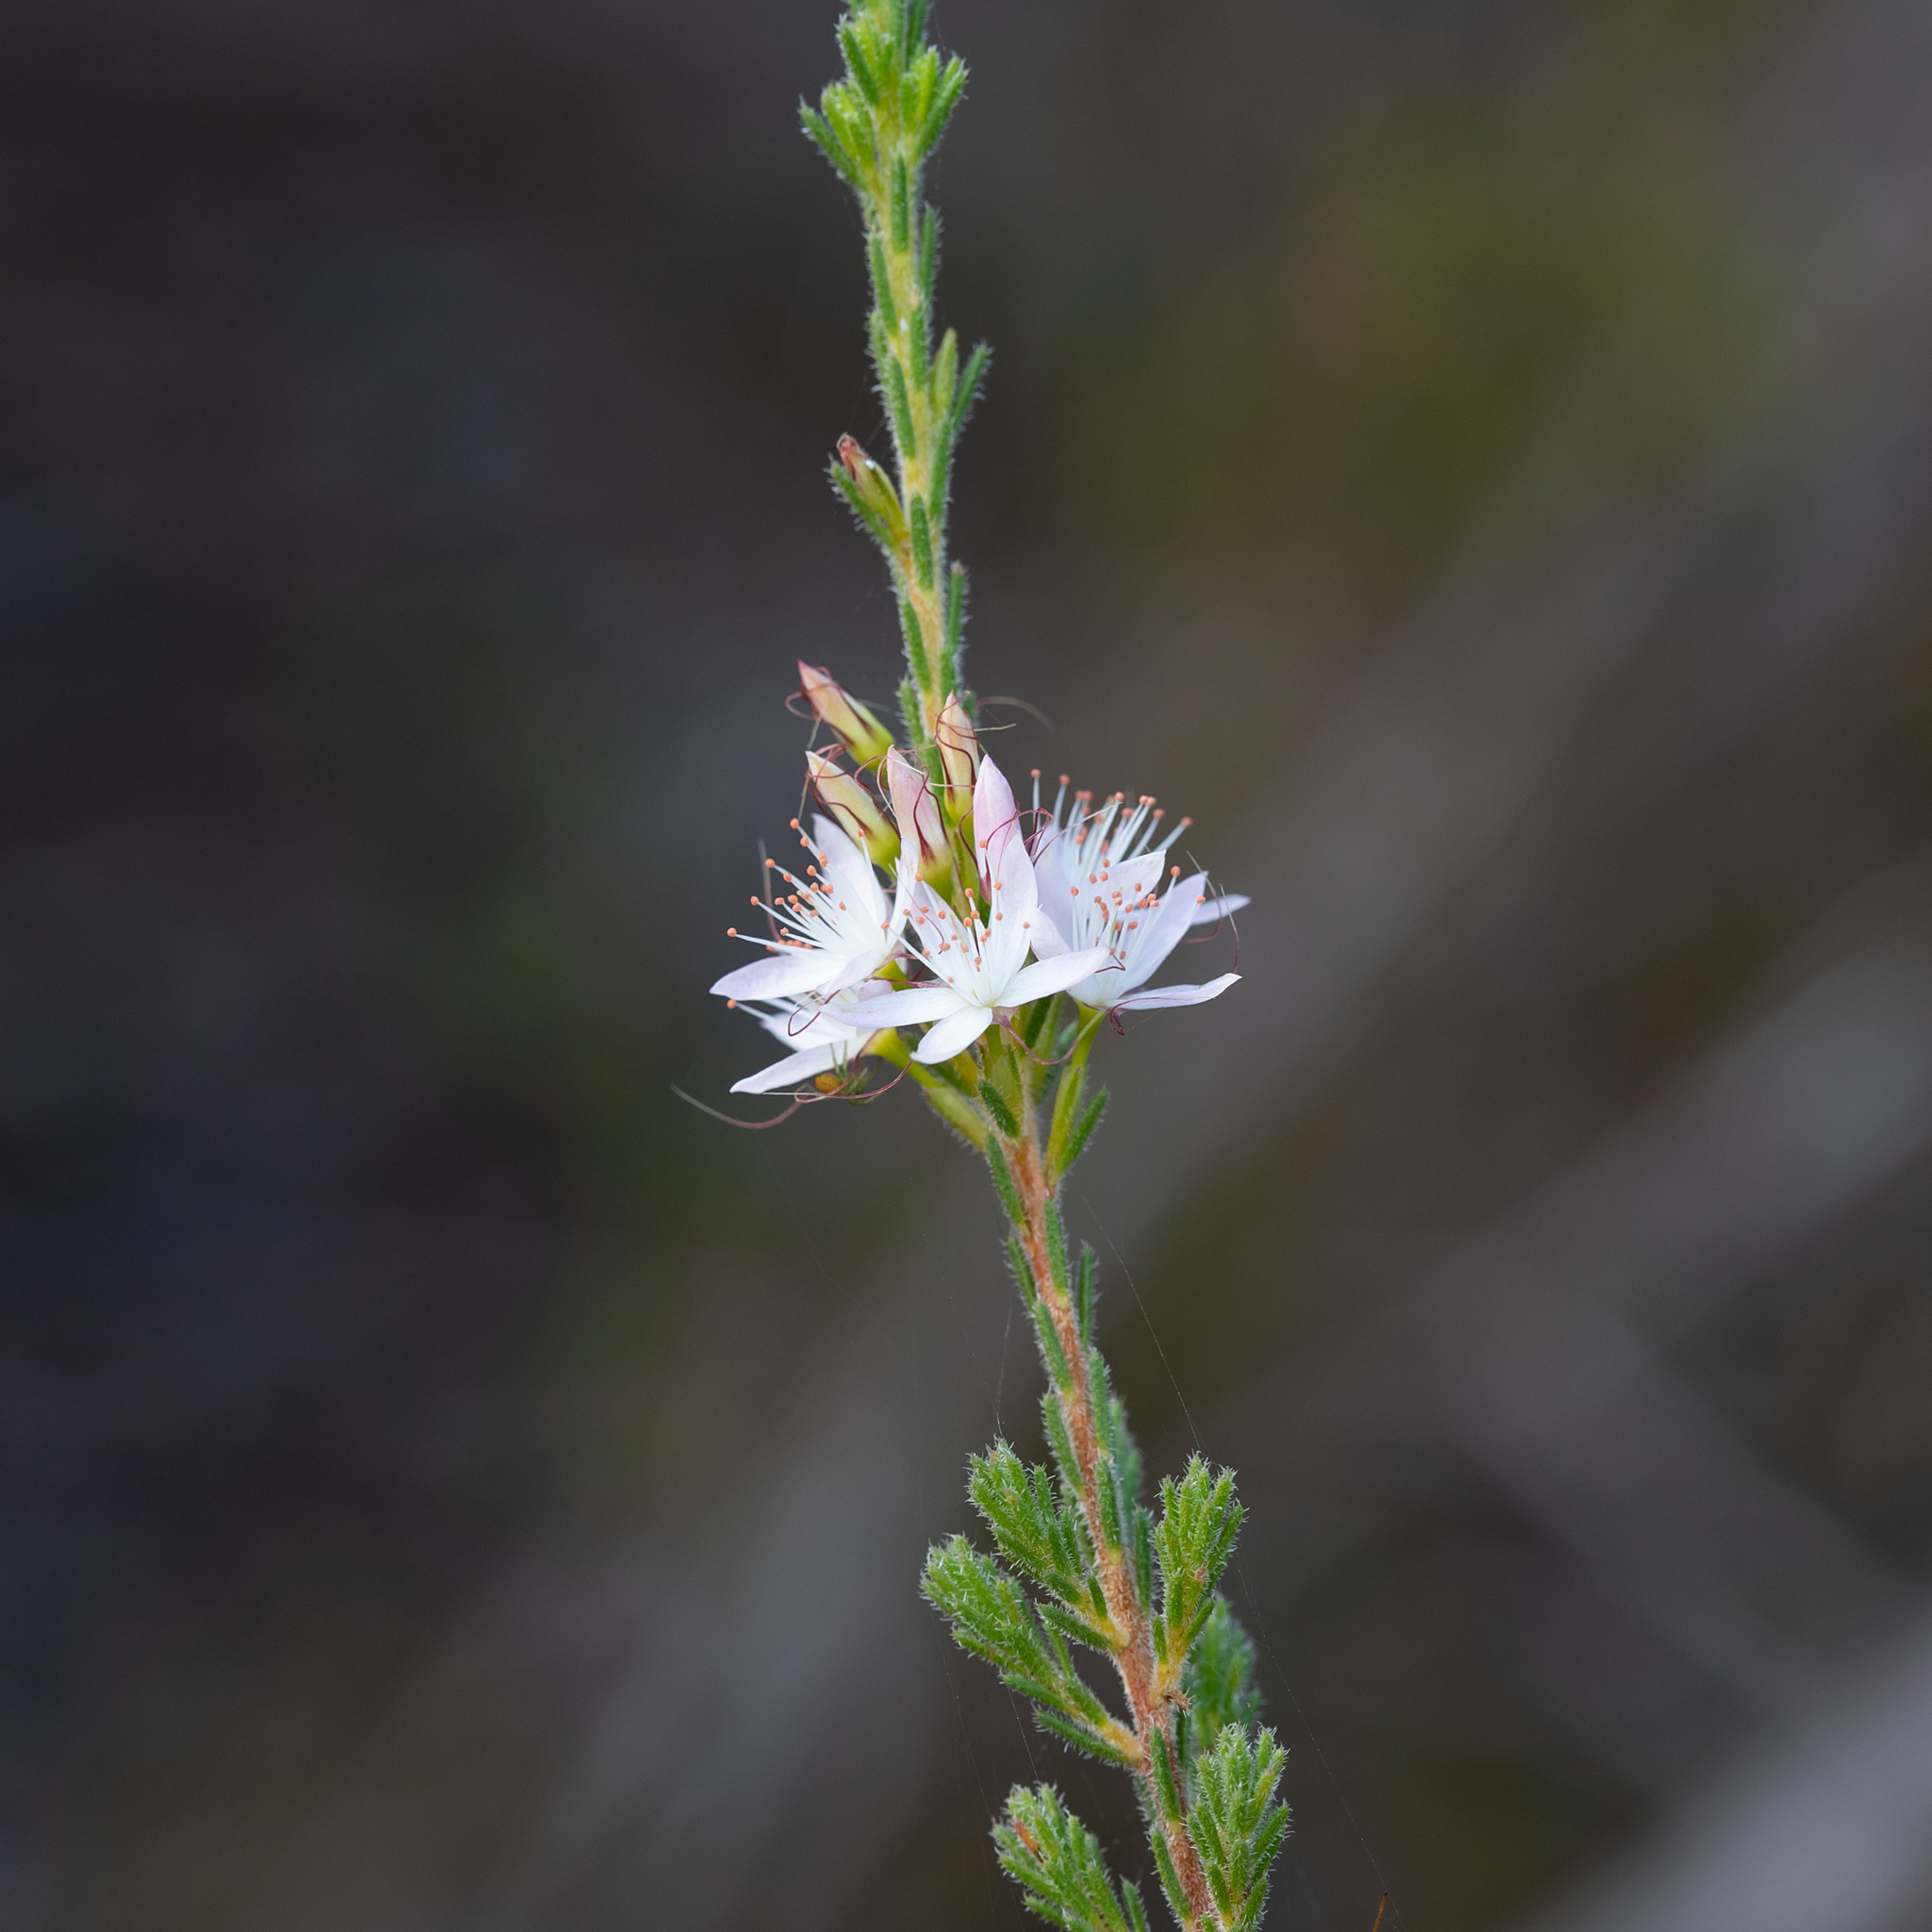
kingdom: Plantae
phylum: Tracheophyta
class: Magnoliopsida
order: Myrtales
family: Myrtaceae
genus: Calytrix
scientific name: Calytrix tetragona
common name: Common fringe myrtle
